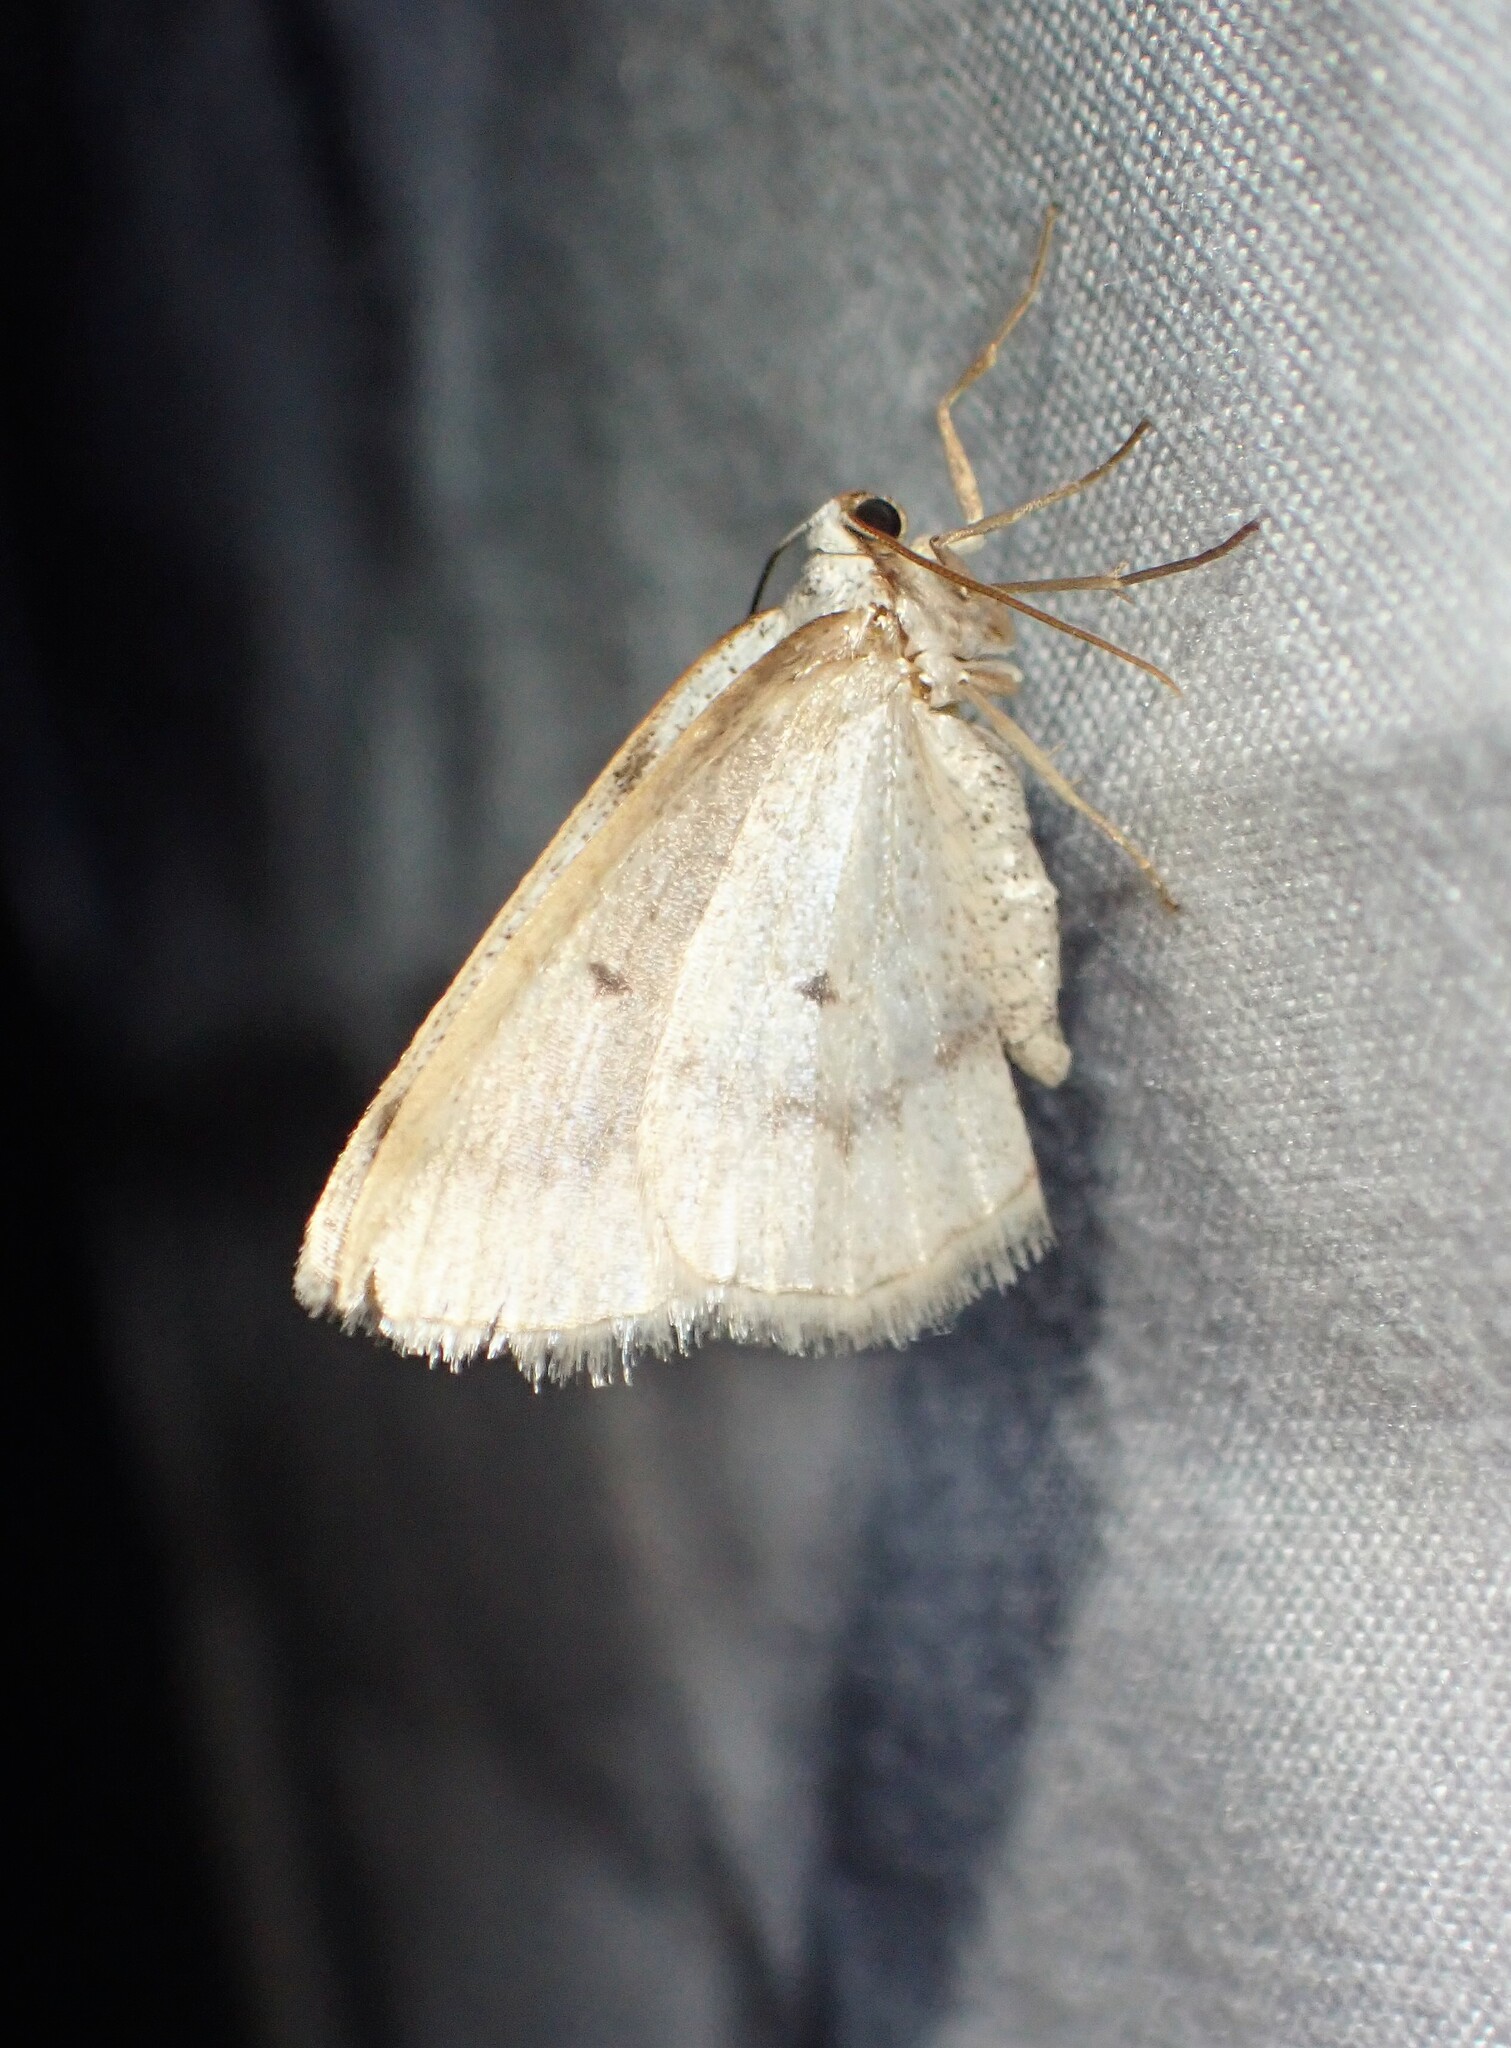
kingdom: Animalia
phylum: Arthropoda
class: Insecta
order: Lepidoptera
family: Geometridae
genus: Lomographa
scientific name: Lomographa glomeraria
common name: Gray spring moth
